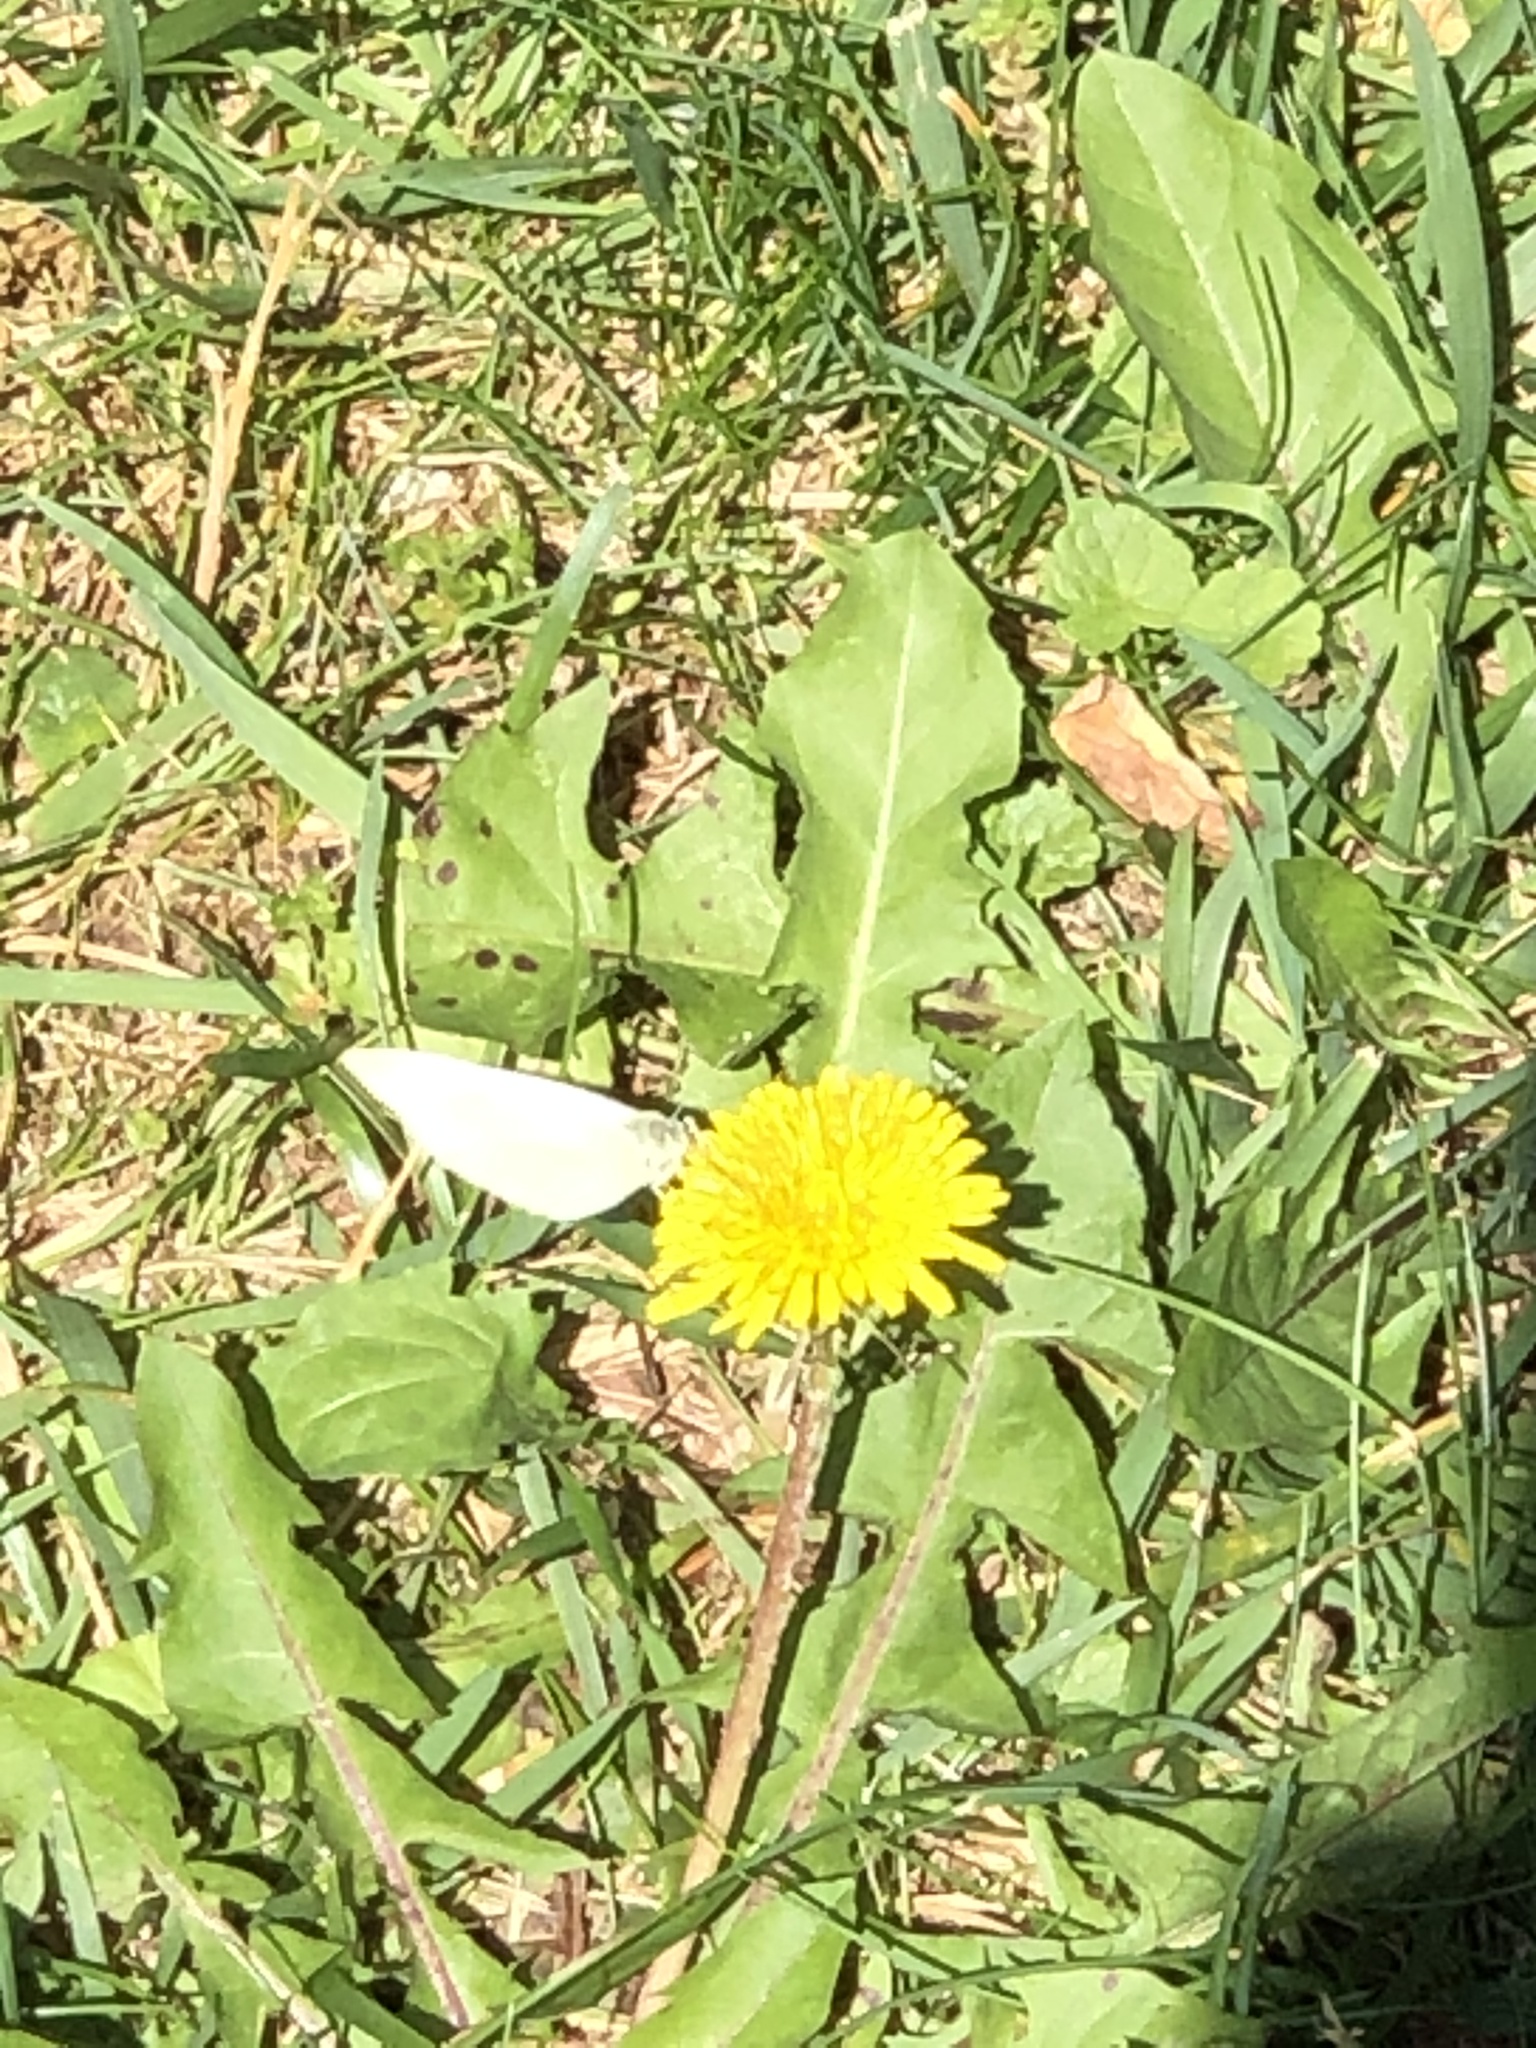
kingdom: Animalia
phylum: Arthropoda
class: Insecta
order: Lepidoptera
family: Pieridae
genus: Pieris
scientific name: Pieris rapae
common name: Small white
